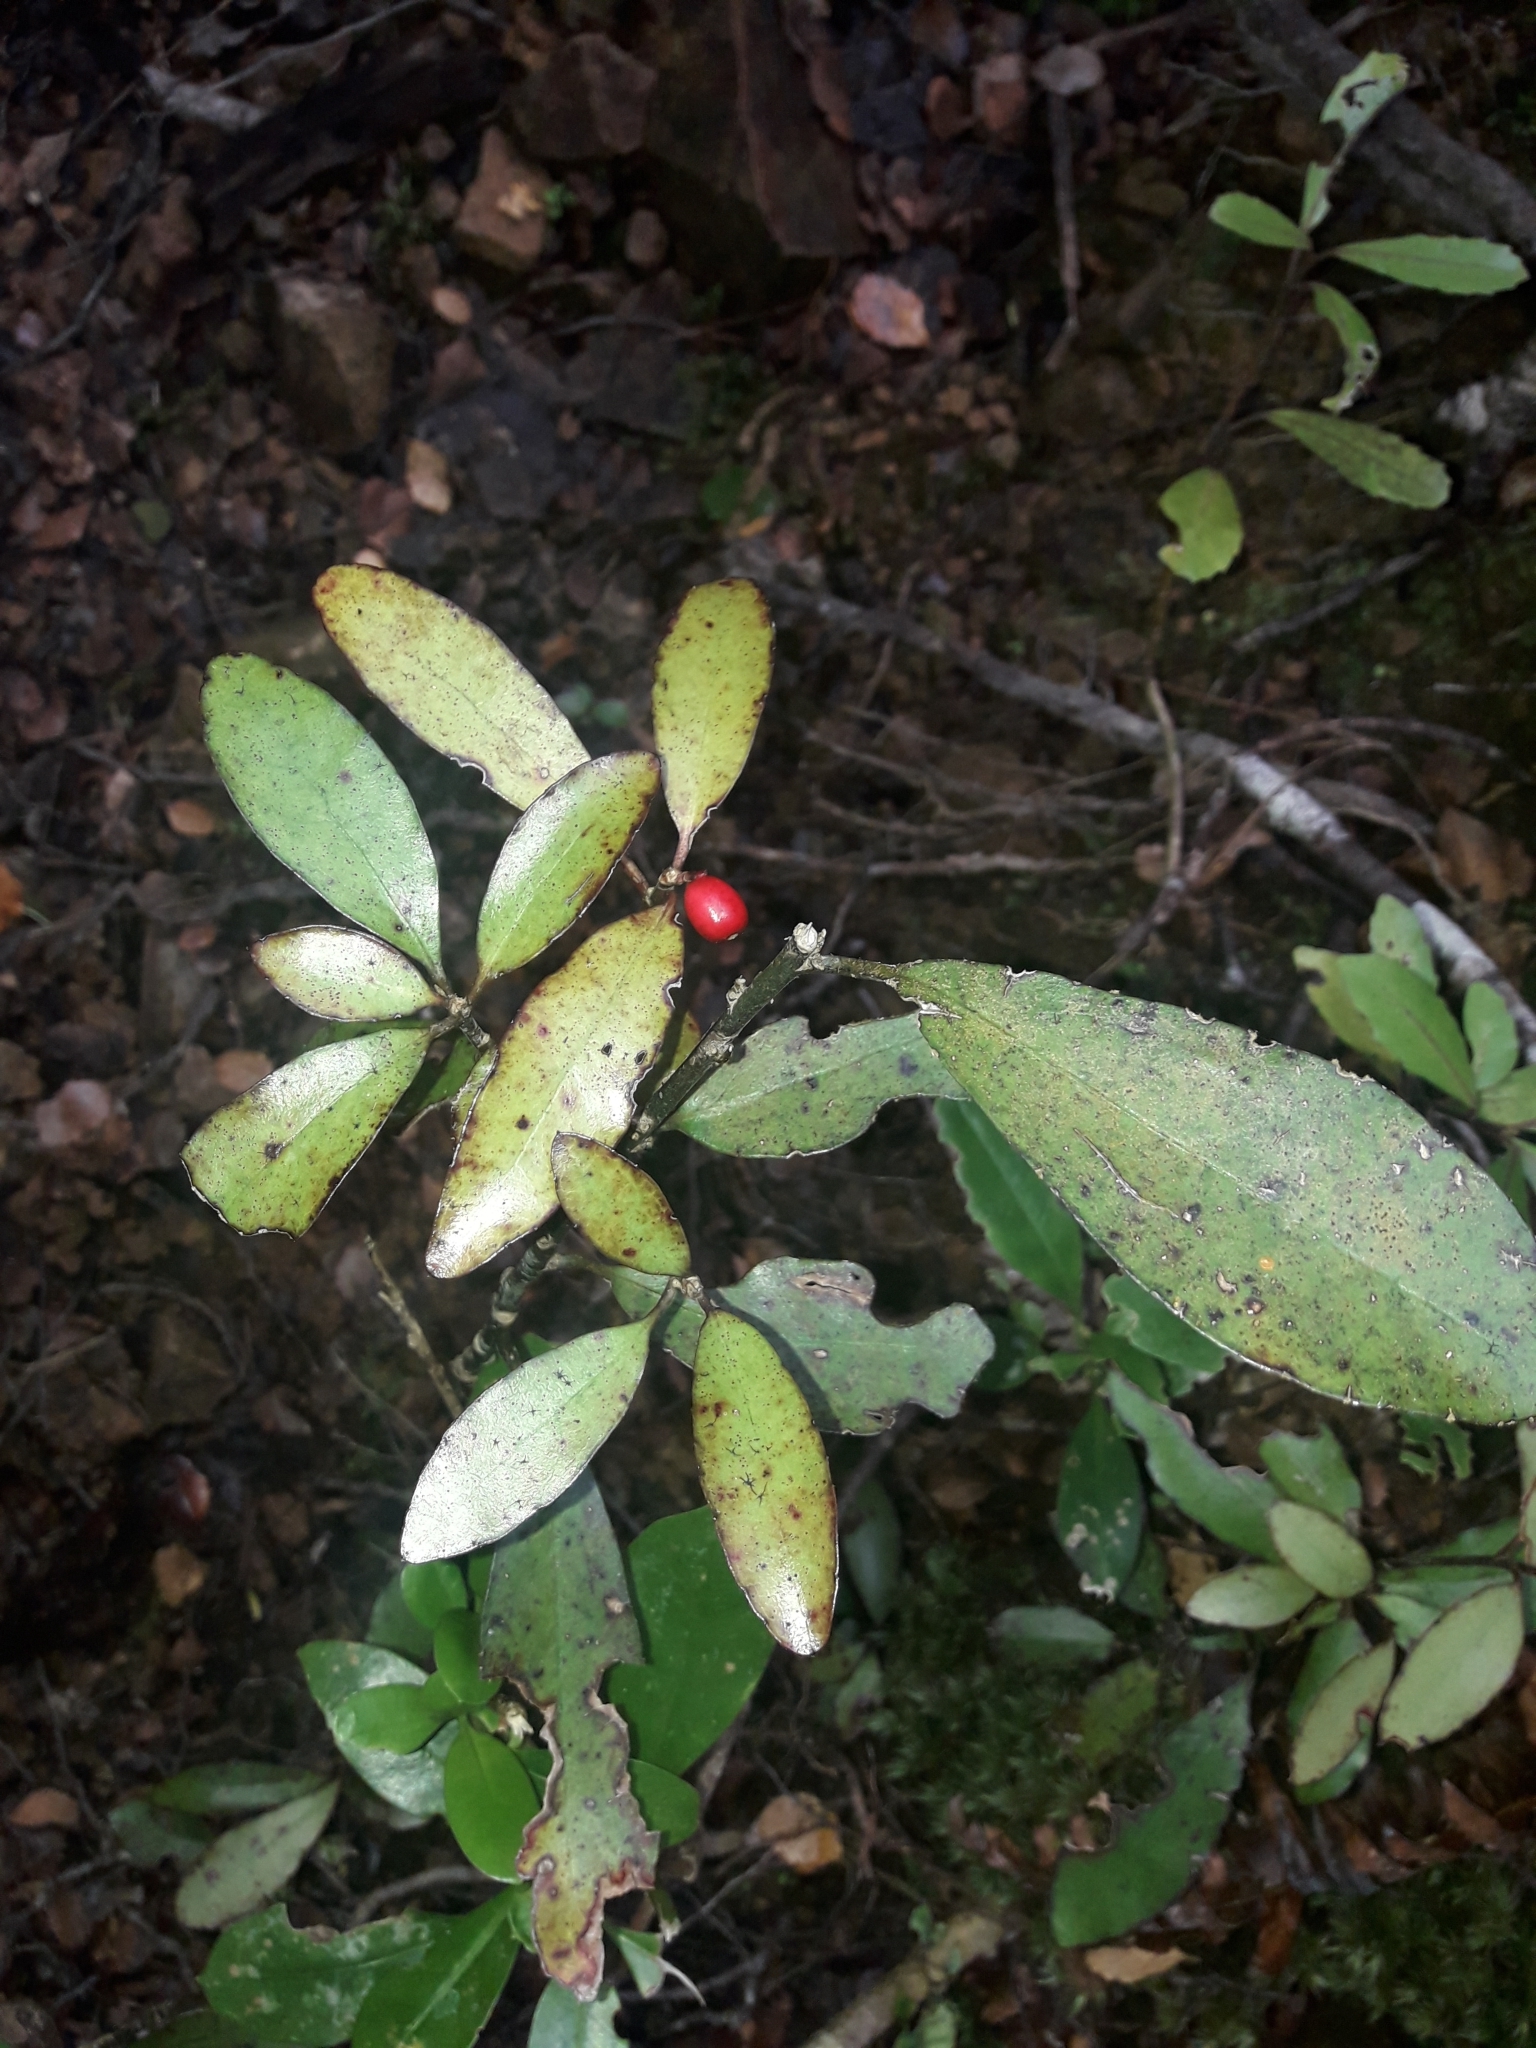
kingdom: Plantae
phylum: Tracheophyta
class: Magnoliopsida
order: Asterales
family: Alseuosmiaceae
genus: Alseuosmia
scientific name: Alseuosmia pusilla
